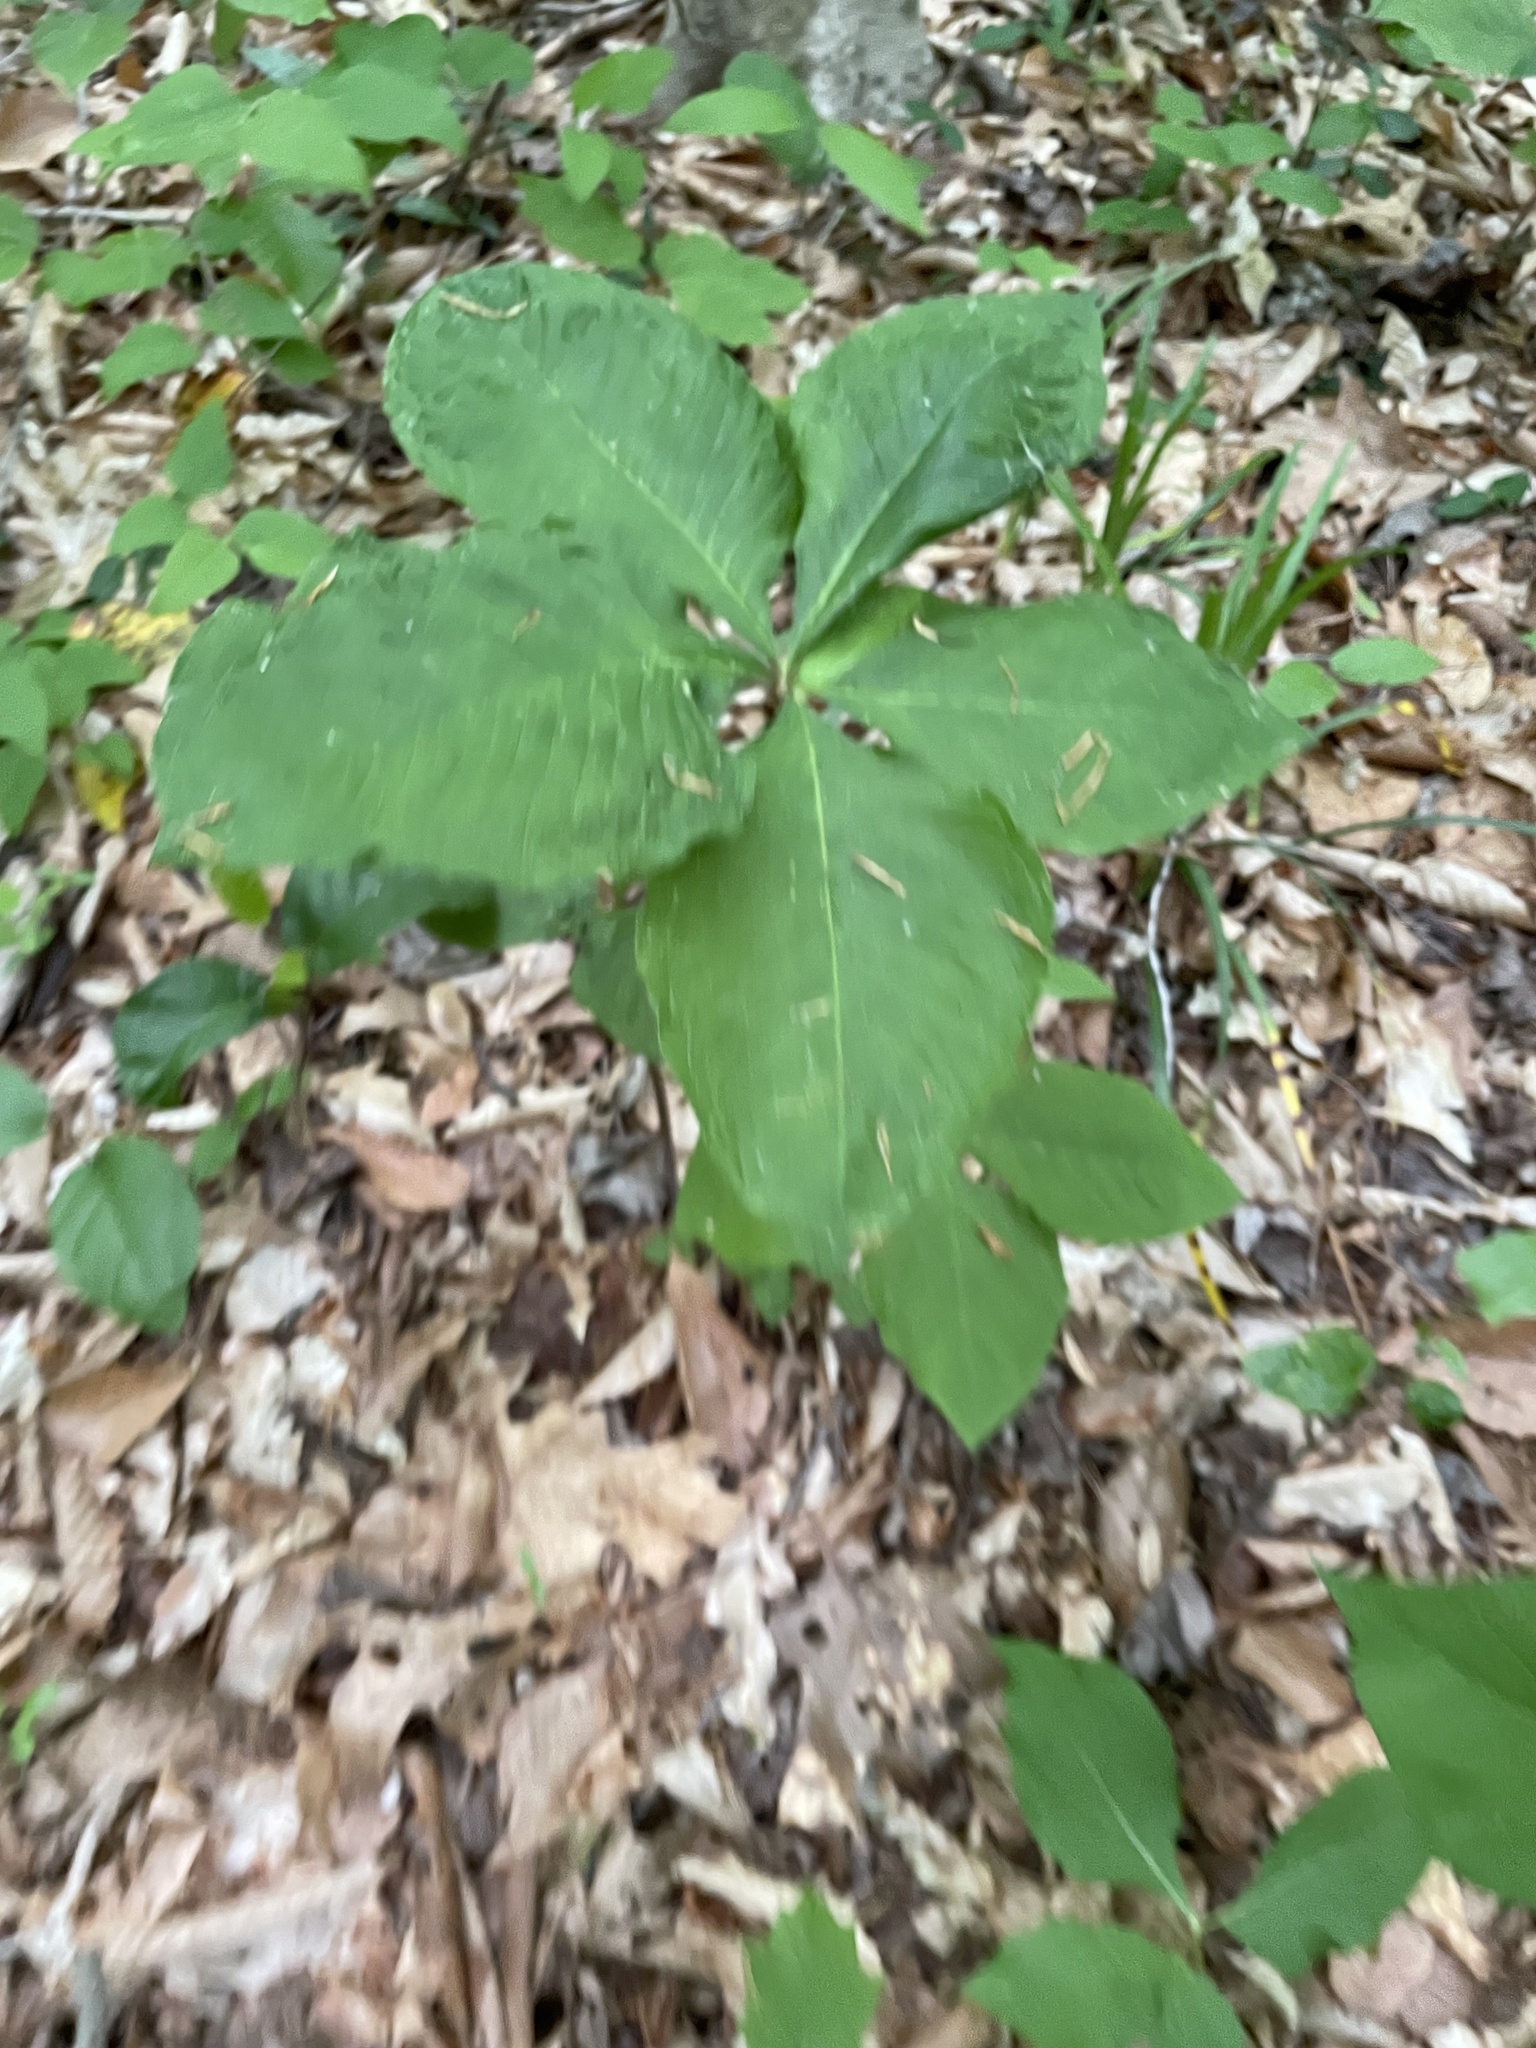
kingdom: Plantae
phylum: Tracheophyta
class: Liliopsida
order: Alismatales
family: Araceae
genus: Arisaema
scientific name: Arisaema quinatum
